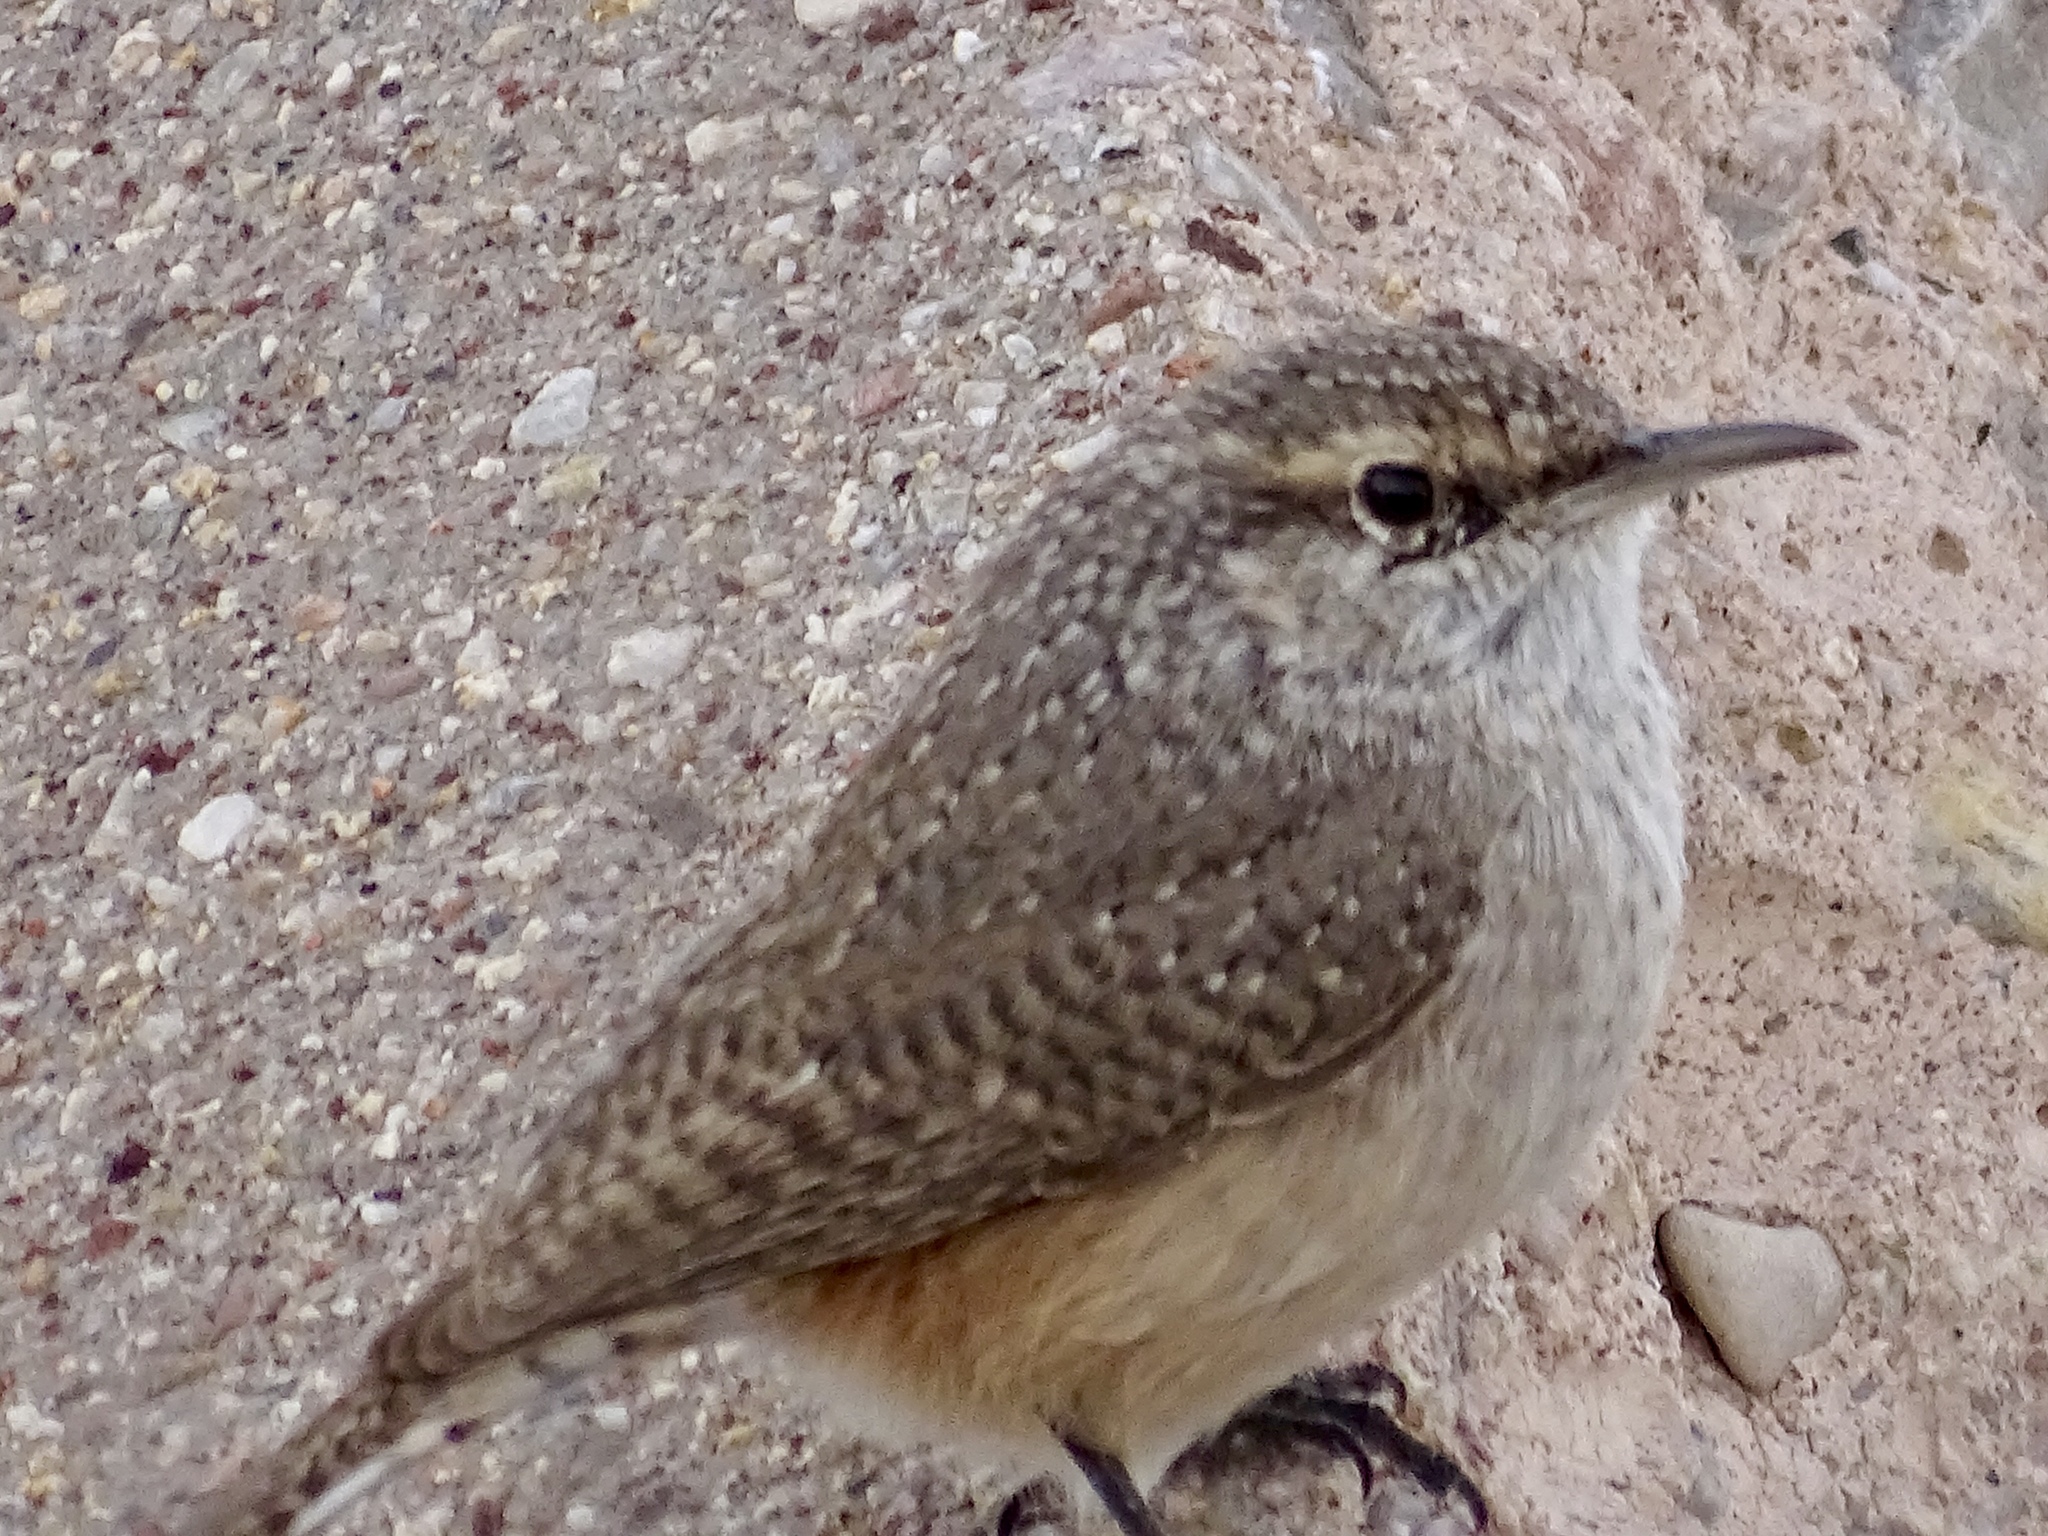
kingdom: Animalia
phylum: Chordata
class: Aves
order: Passeriformes
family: Troglodytidae
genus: Salpinctes
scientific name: Salpinctes obsoletus
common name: Rock wren
